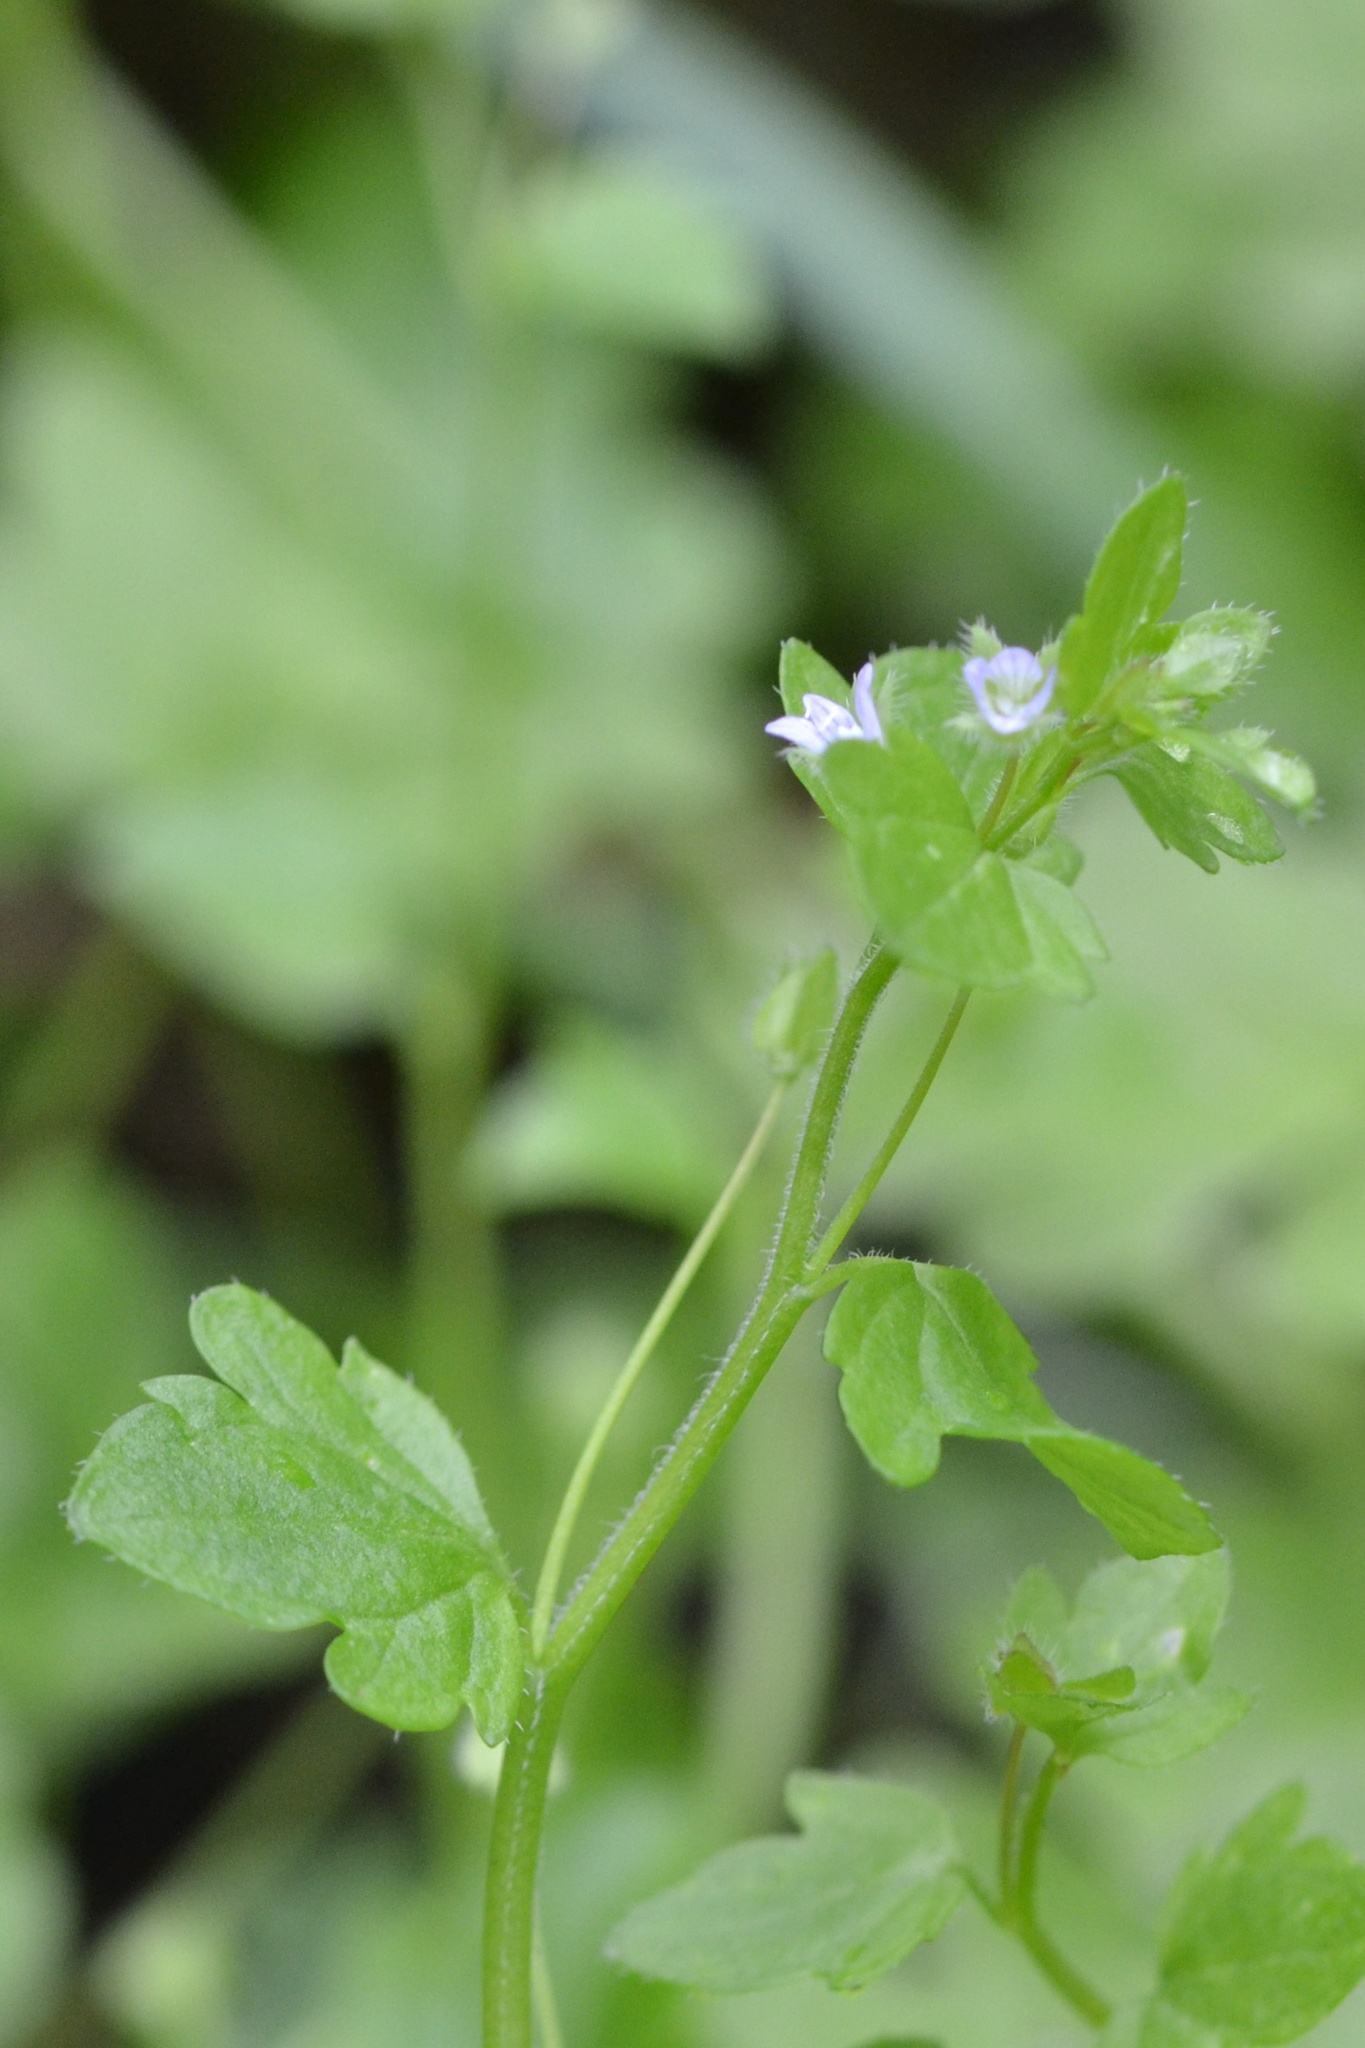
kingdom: Plantae
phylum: Tracheophyta
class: Magnoliopsida
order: Lamiales
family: Plantaginaceae
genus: Veronica
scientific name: Veronica sublobata
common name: False ivy-leaved speedwell
